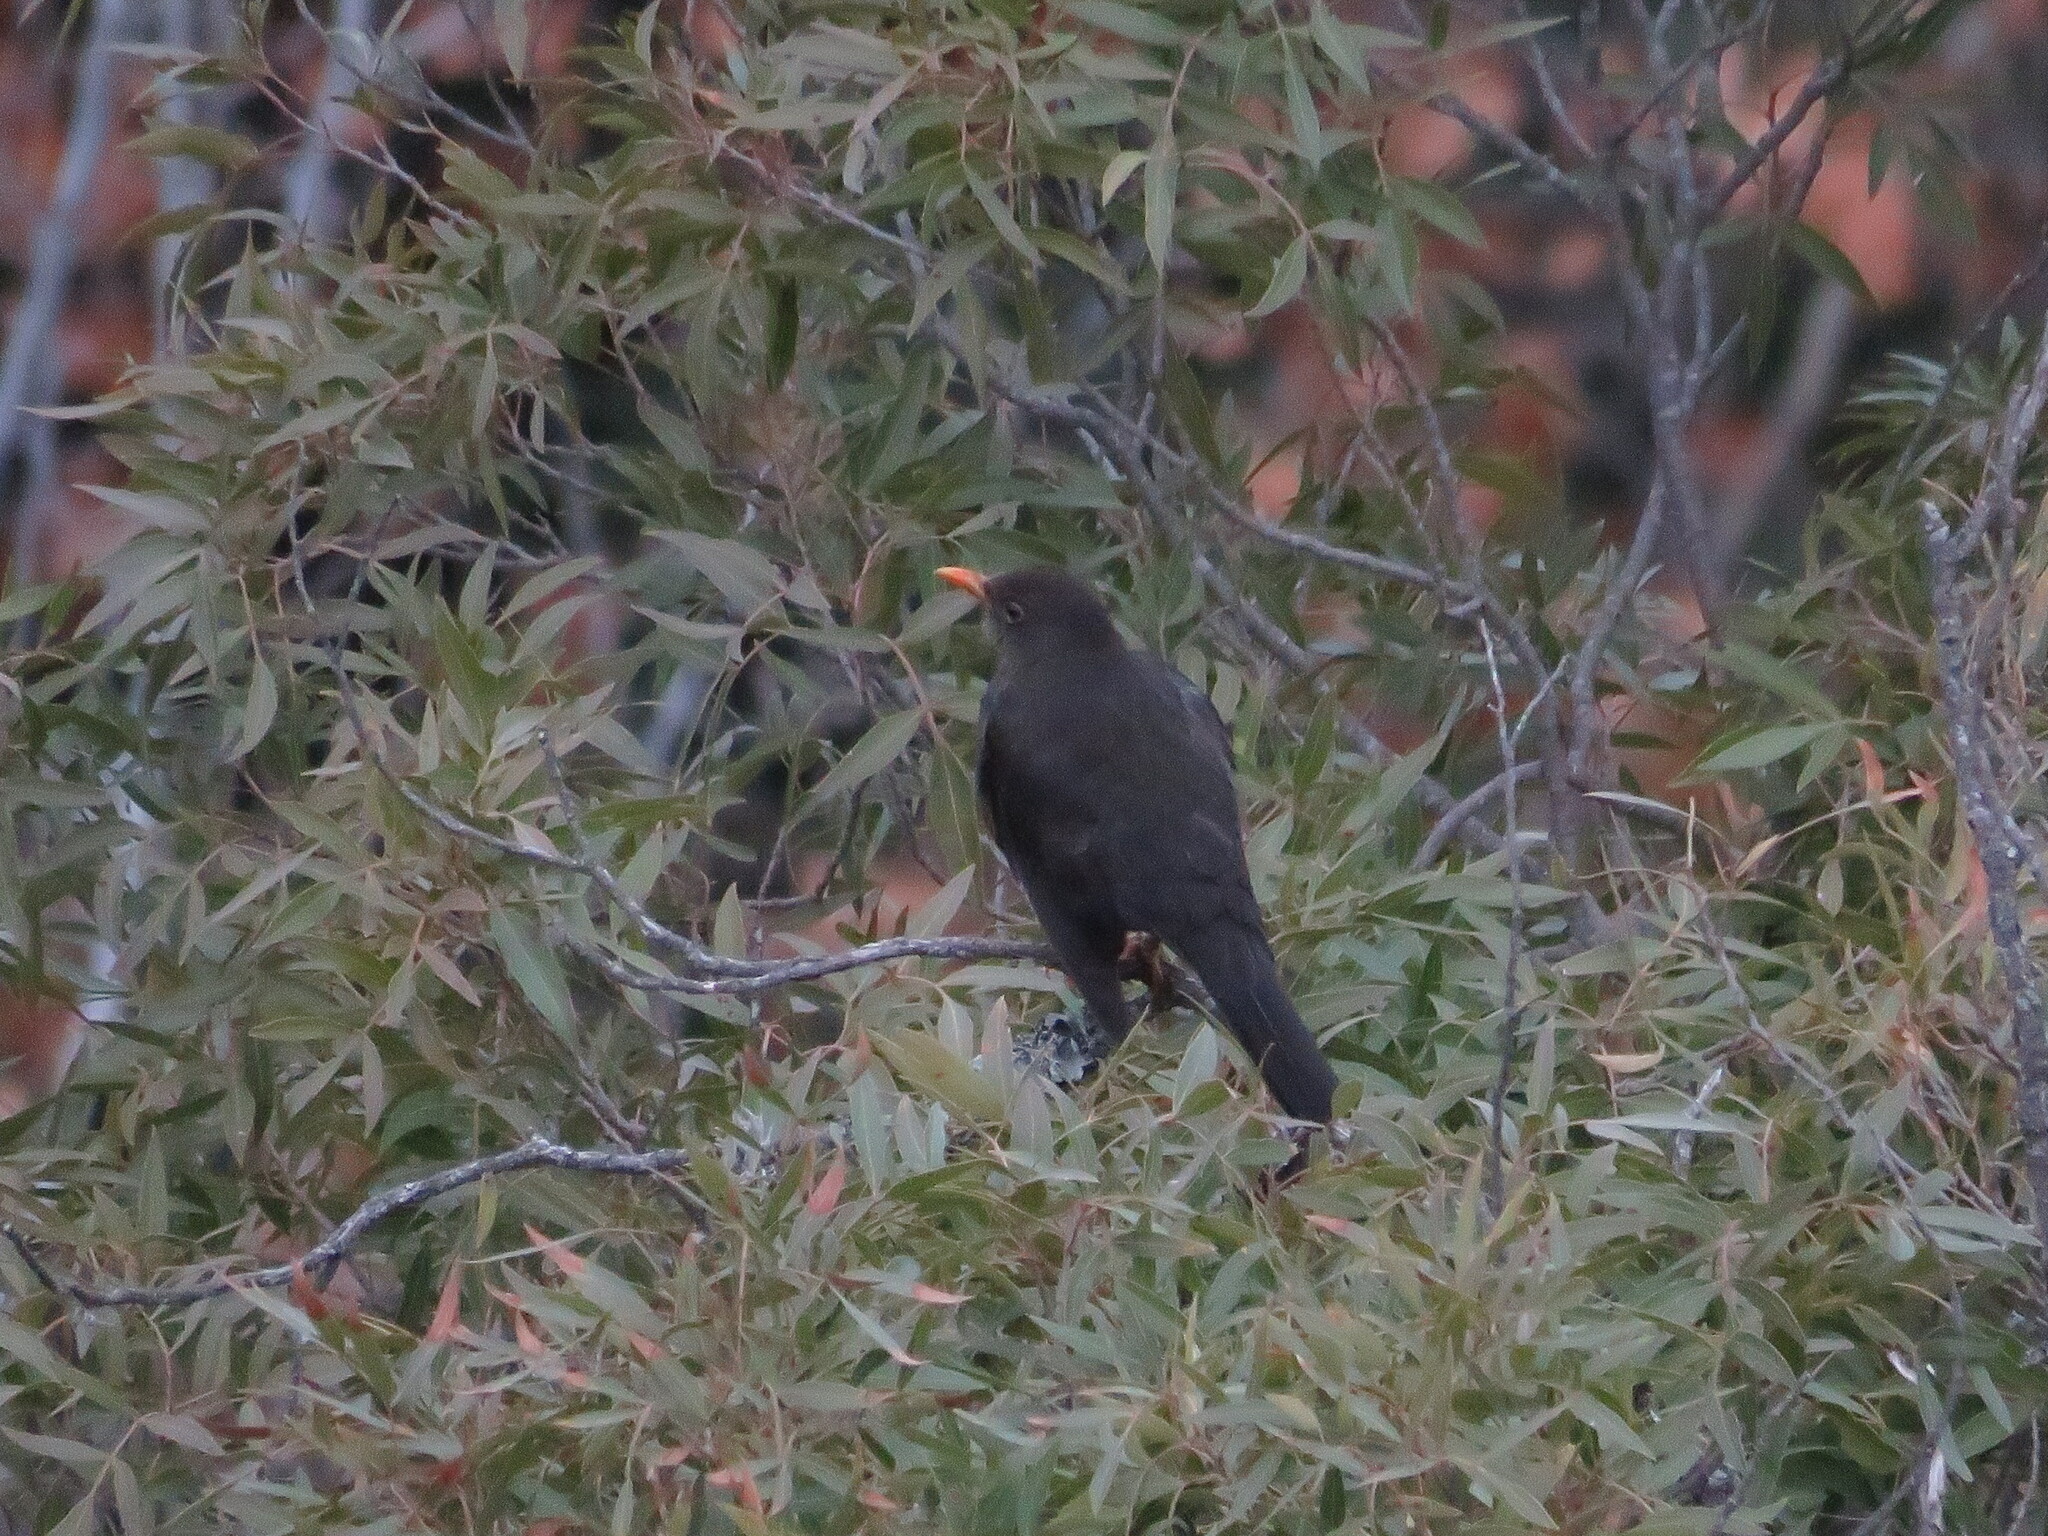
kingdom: Animalia
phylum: Chordata
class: Aves
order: Passeriformes
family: Turdidae
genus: Turdus
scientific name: Turdus chiguanco
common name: Chiguanco thrush
